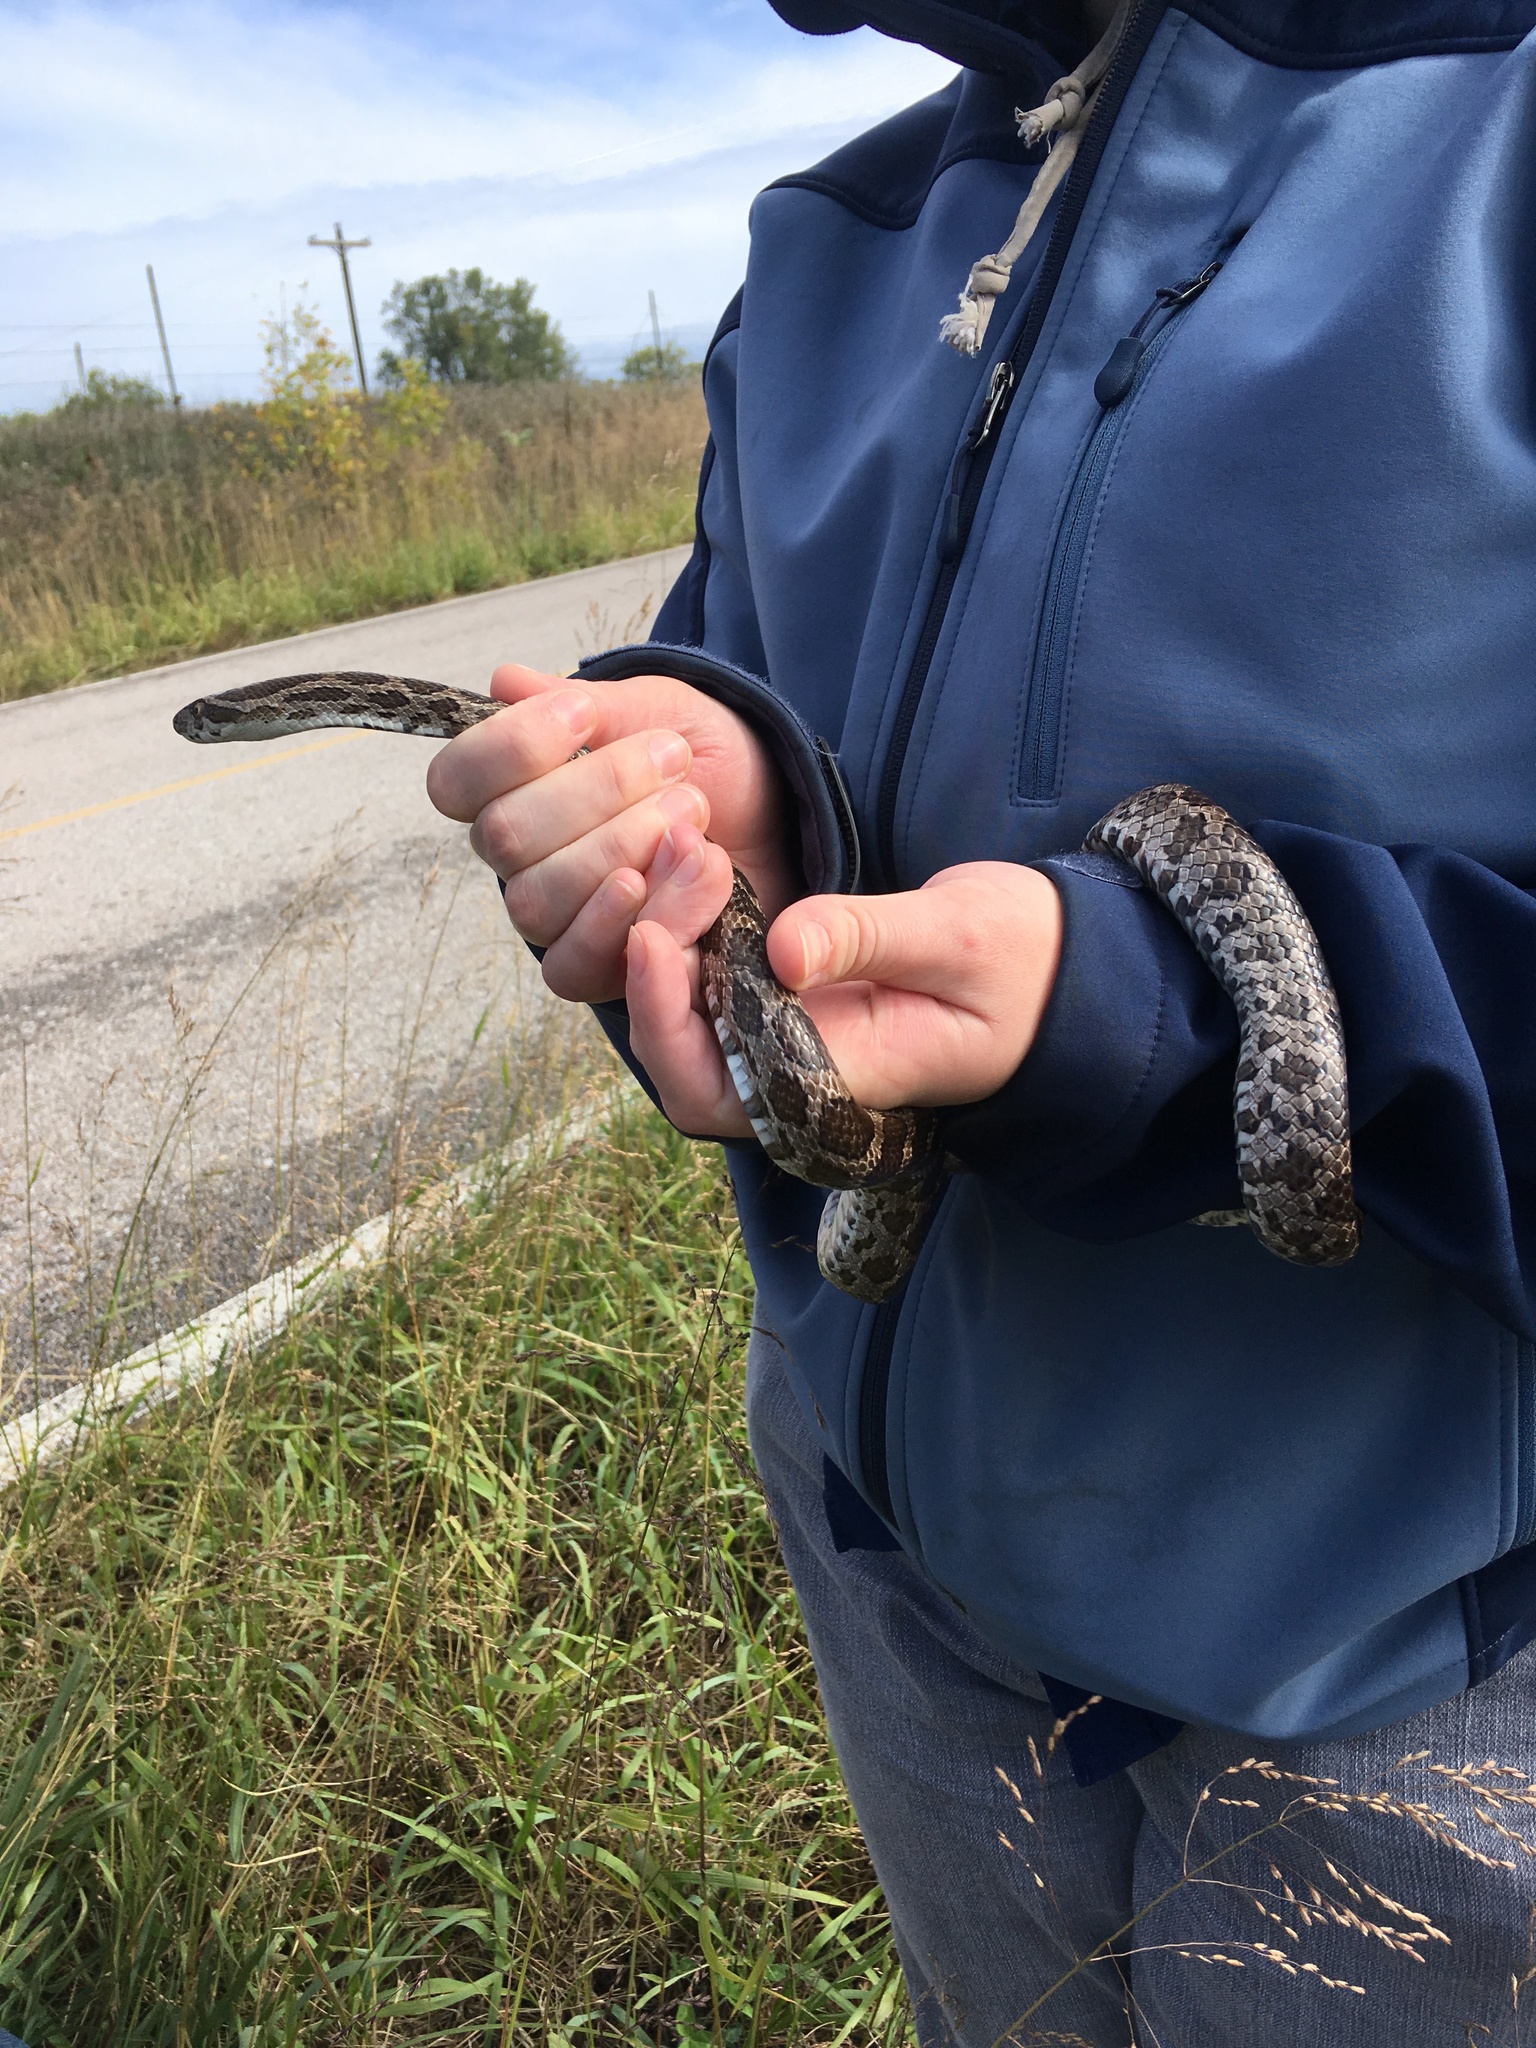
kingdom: Animalia
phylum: Chordata
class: Squamata
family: Colubridae
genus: Pantherophis
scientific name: Pantherophis emoryi
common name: Great plains rat snake
